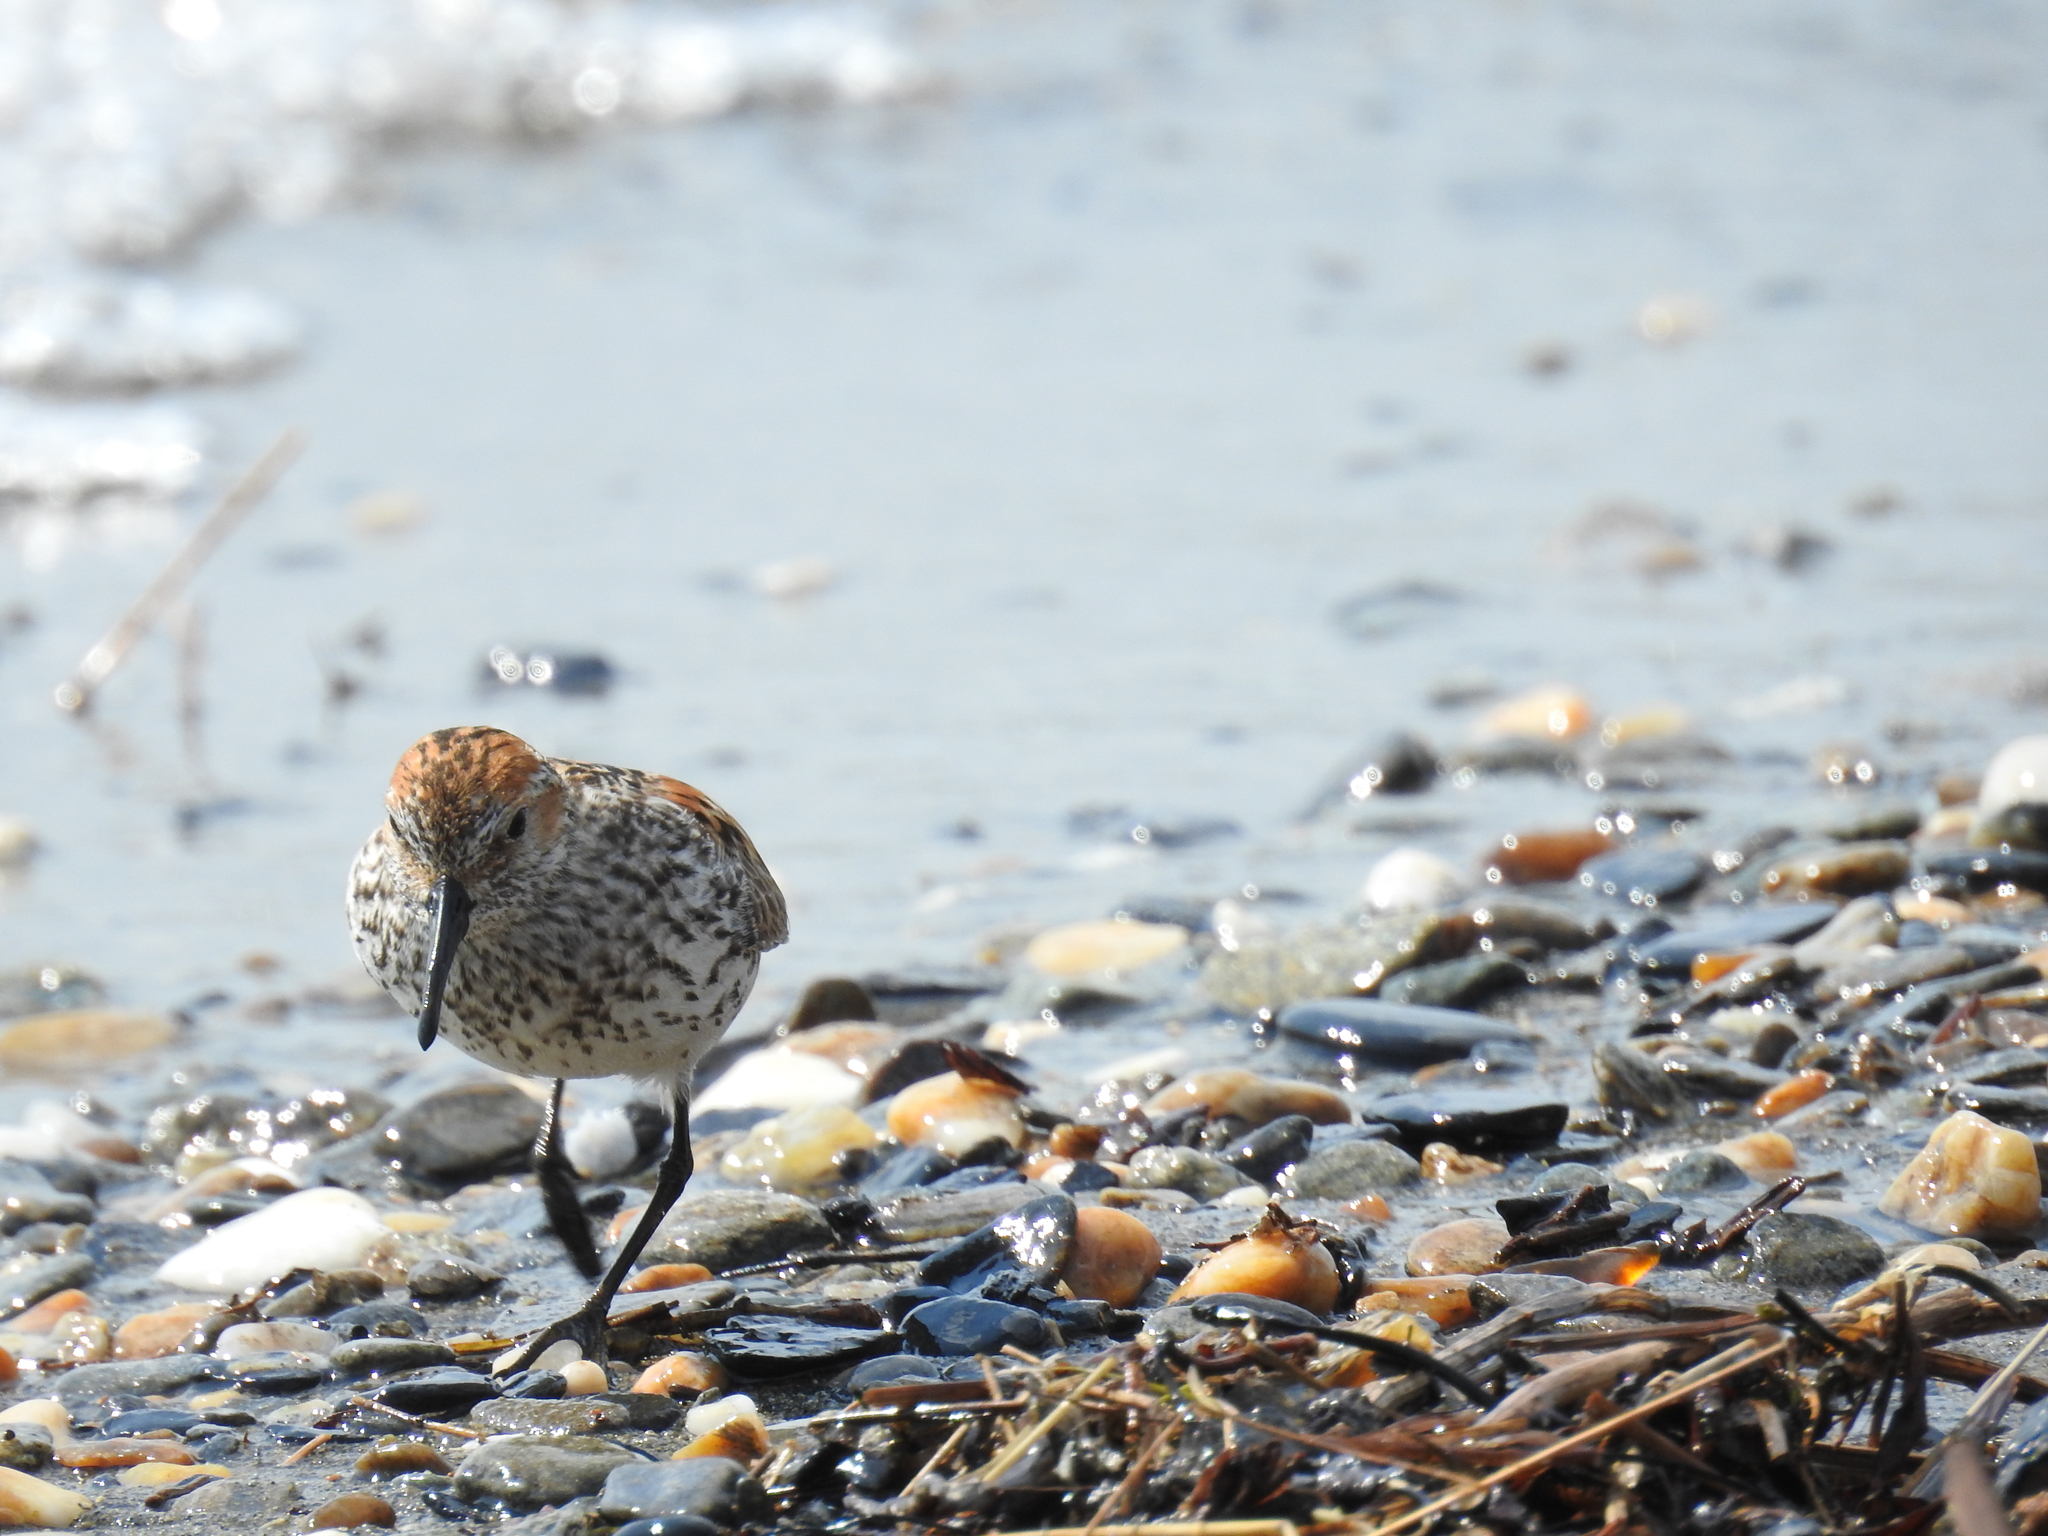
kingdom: Animalia
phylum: Chordata
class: Aves
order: Charadriiformes
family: Scolopacidae
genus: Calidris
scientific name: Calidris mauri
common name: Western sandpiper
